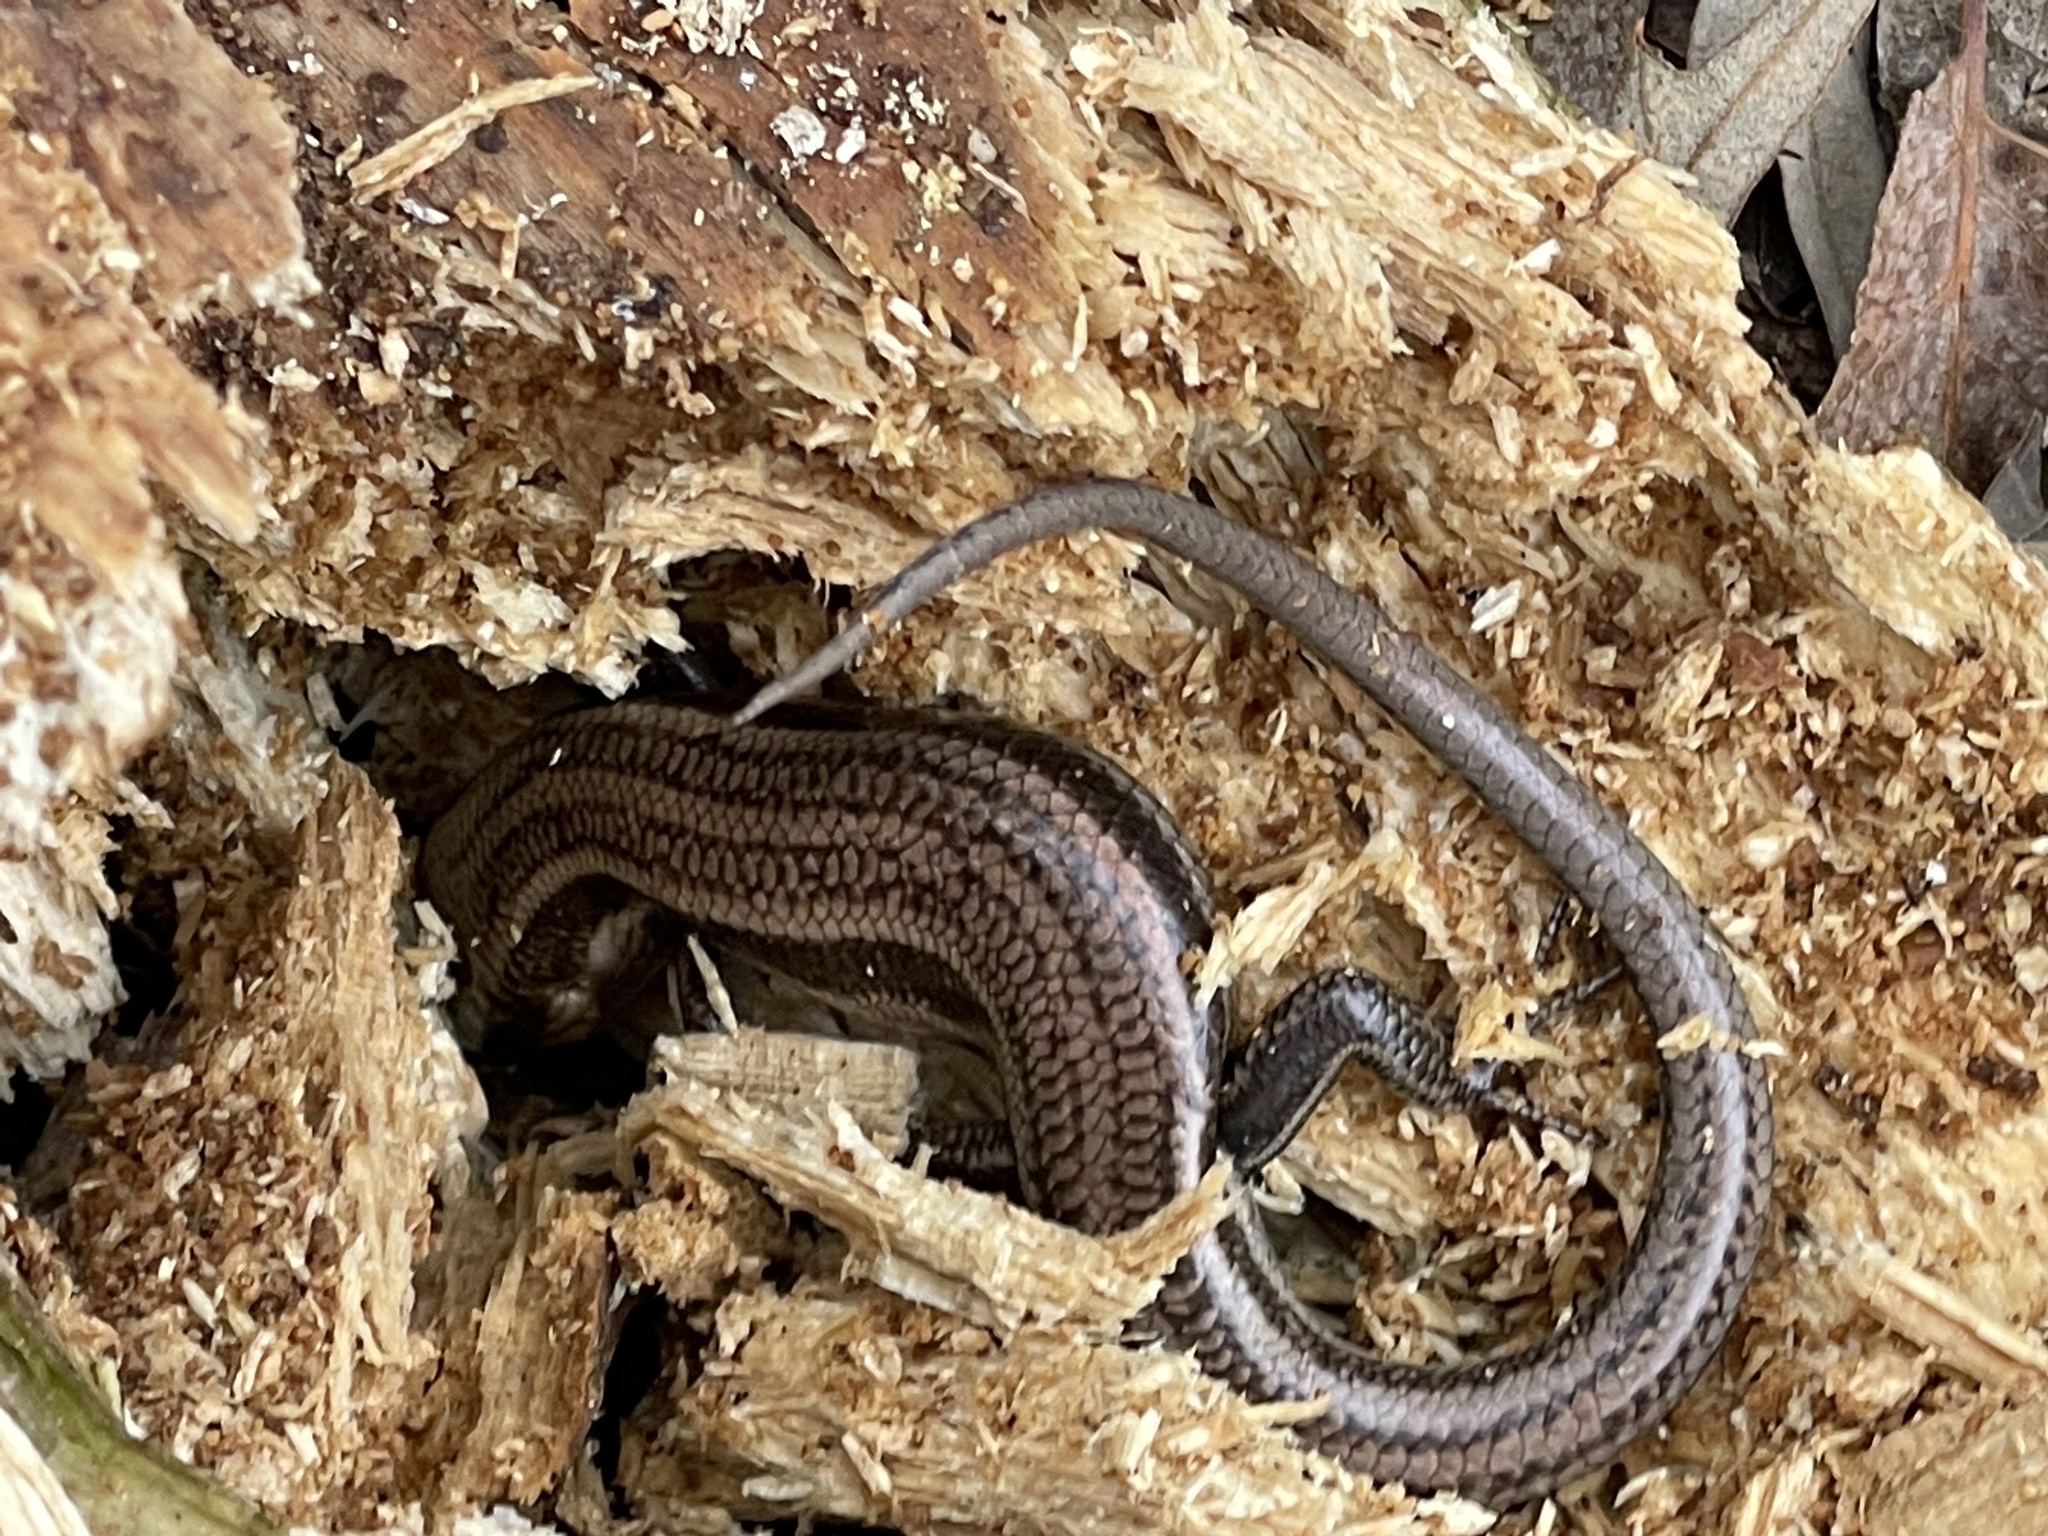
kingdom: Animalia
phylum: Chordata
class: Squamata
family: Scincidae
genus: Plestiodon
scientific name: Plestiodon fasciatus
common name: Five-lined skink
